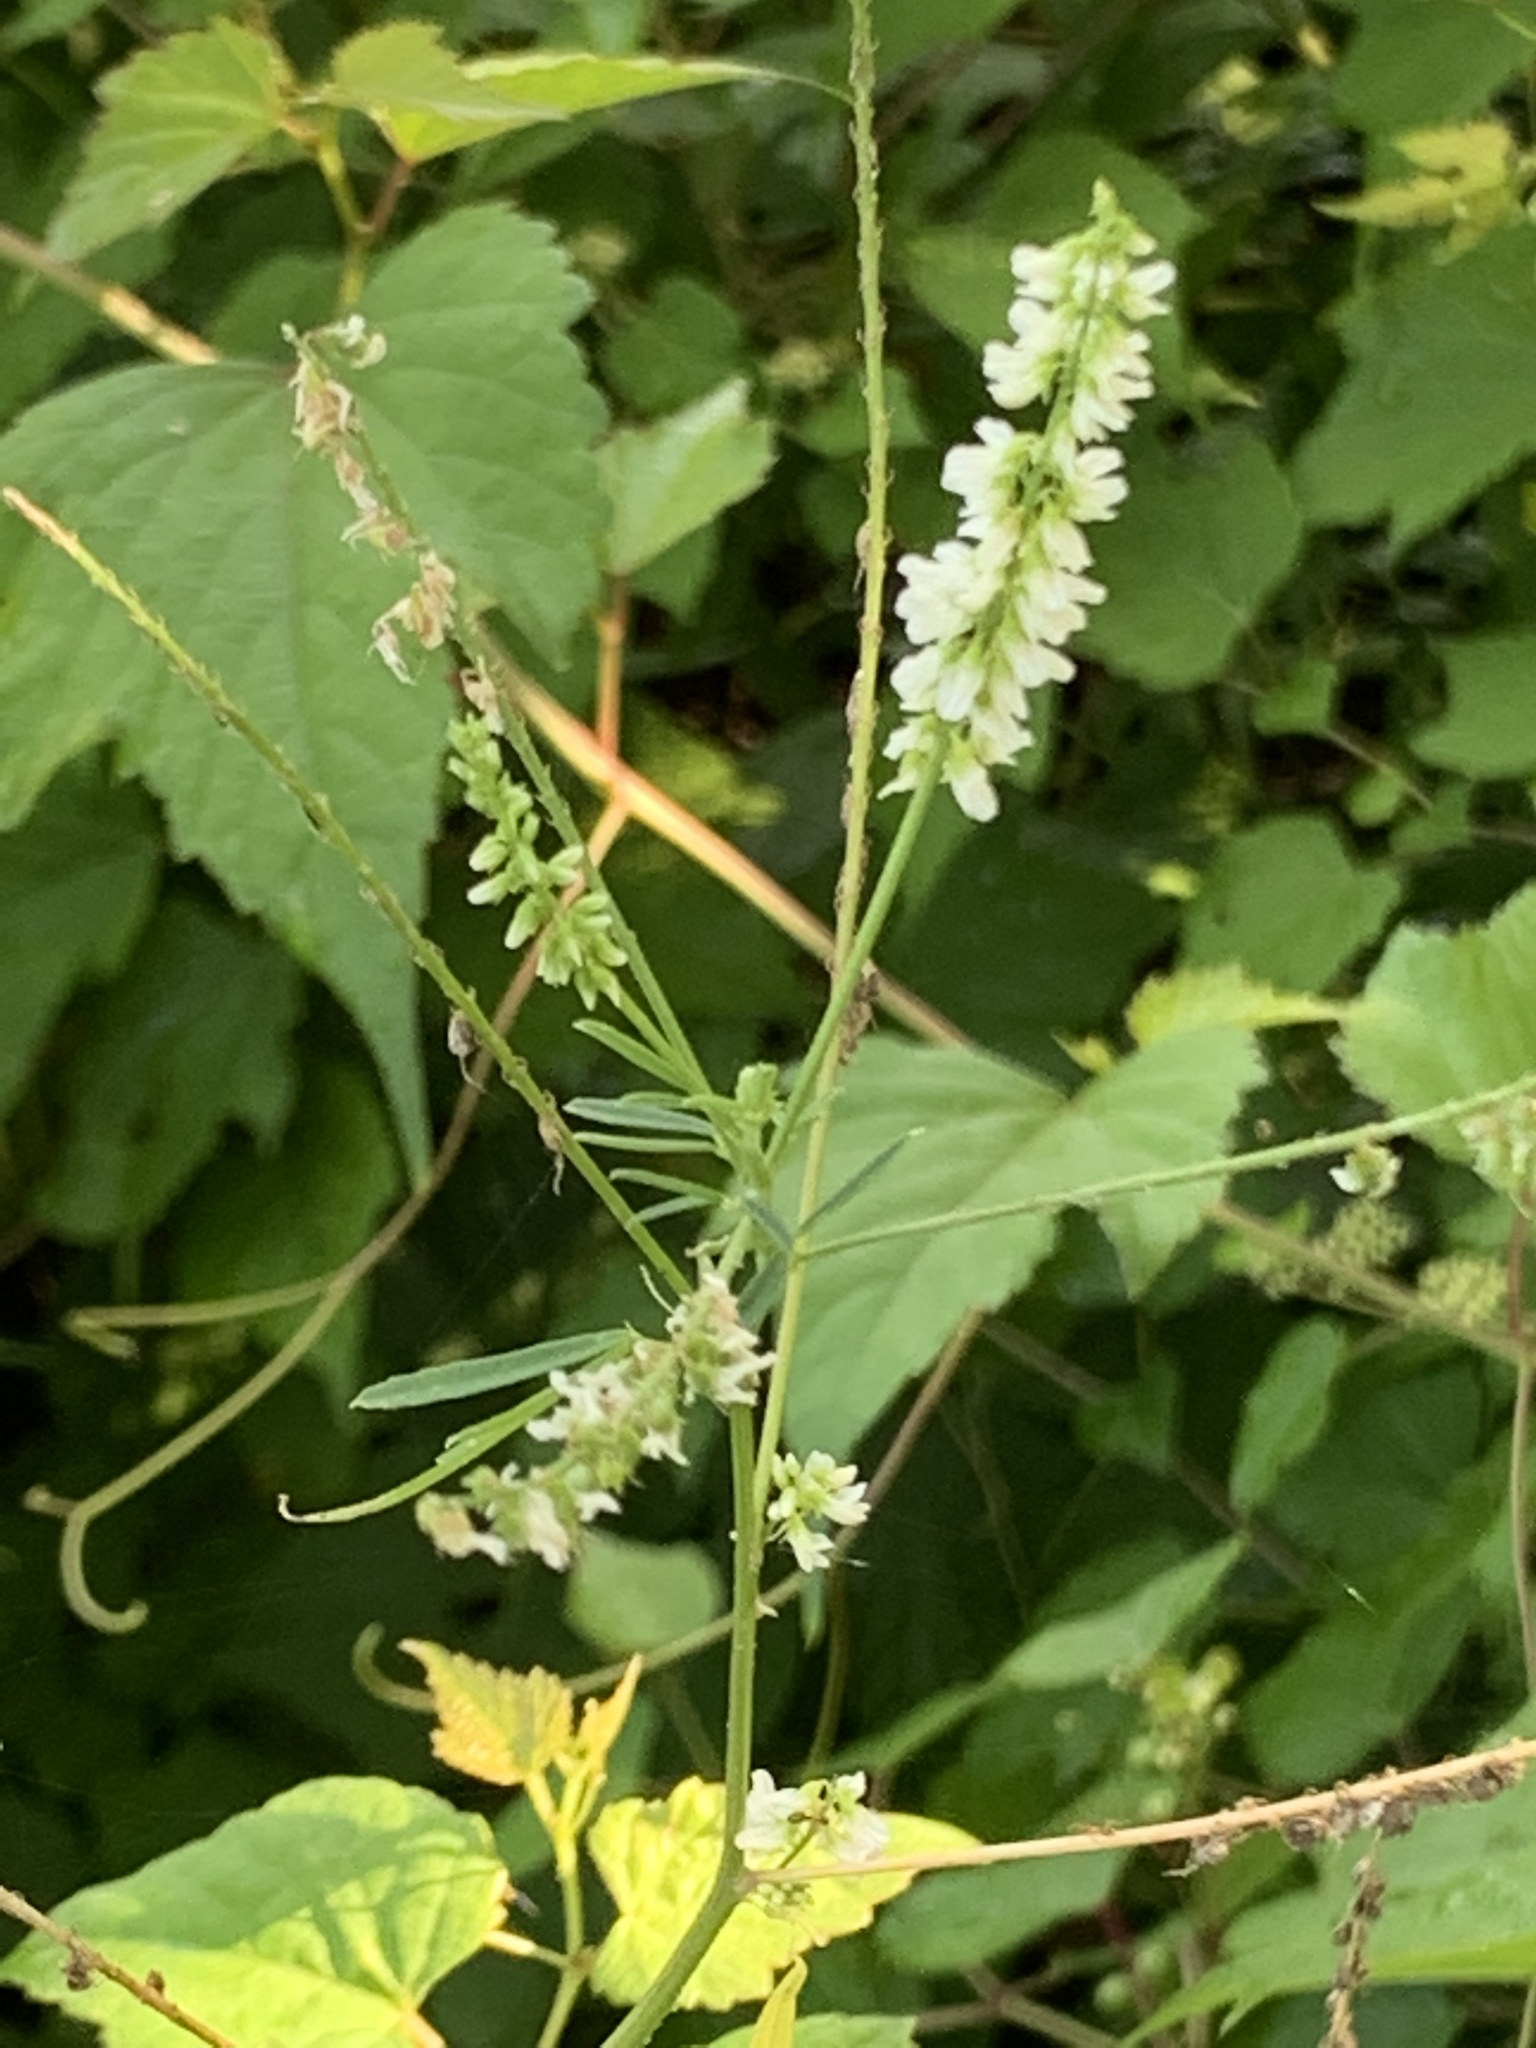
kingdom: Plantae
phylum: Tracheophyta
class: Magnoliopsida
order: Fabales
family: Fabaceae
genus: Melilotus
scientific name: Melilotus albus
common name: White melilot
